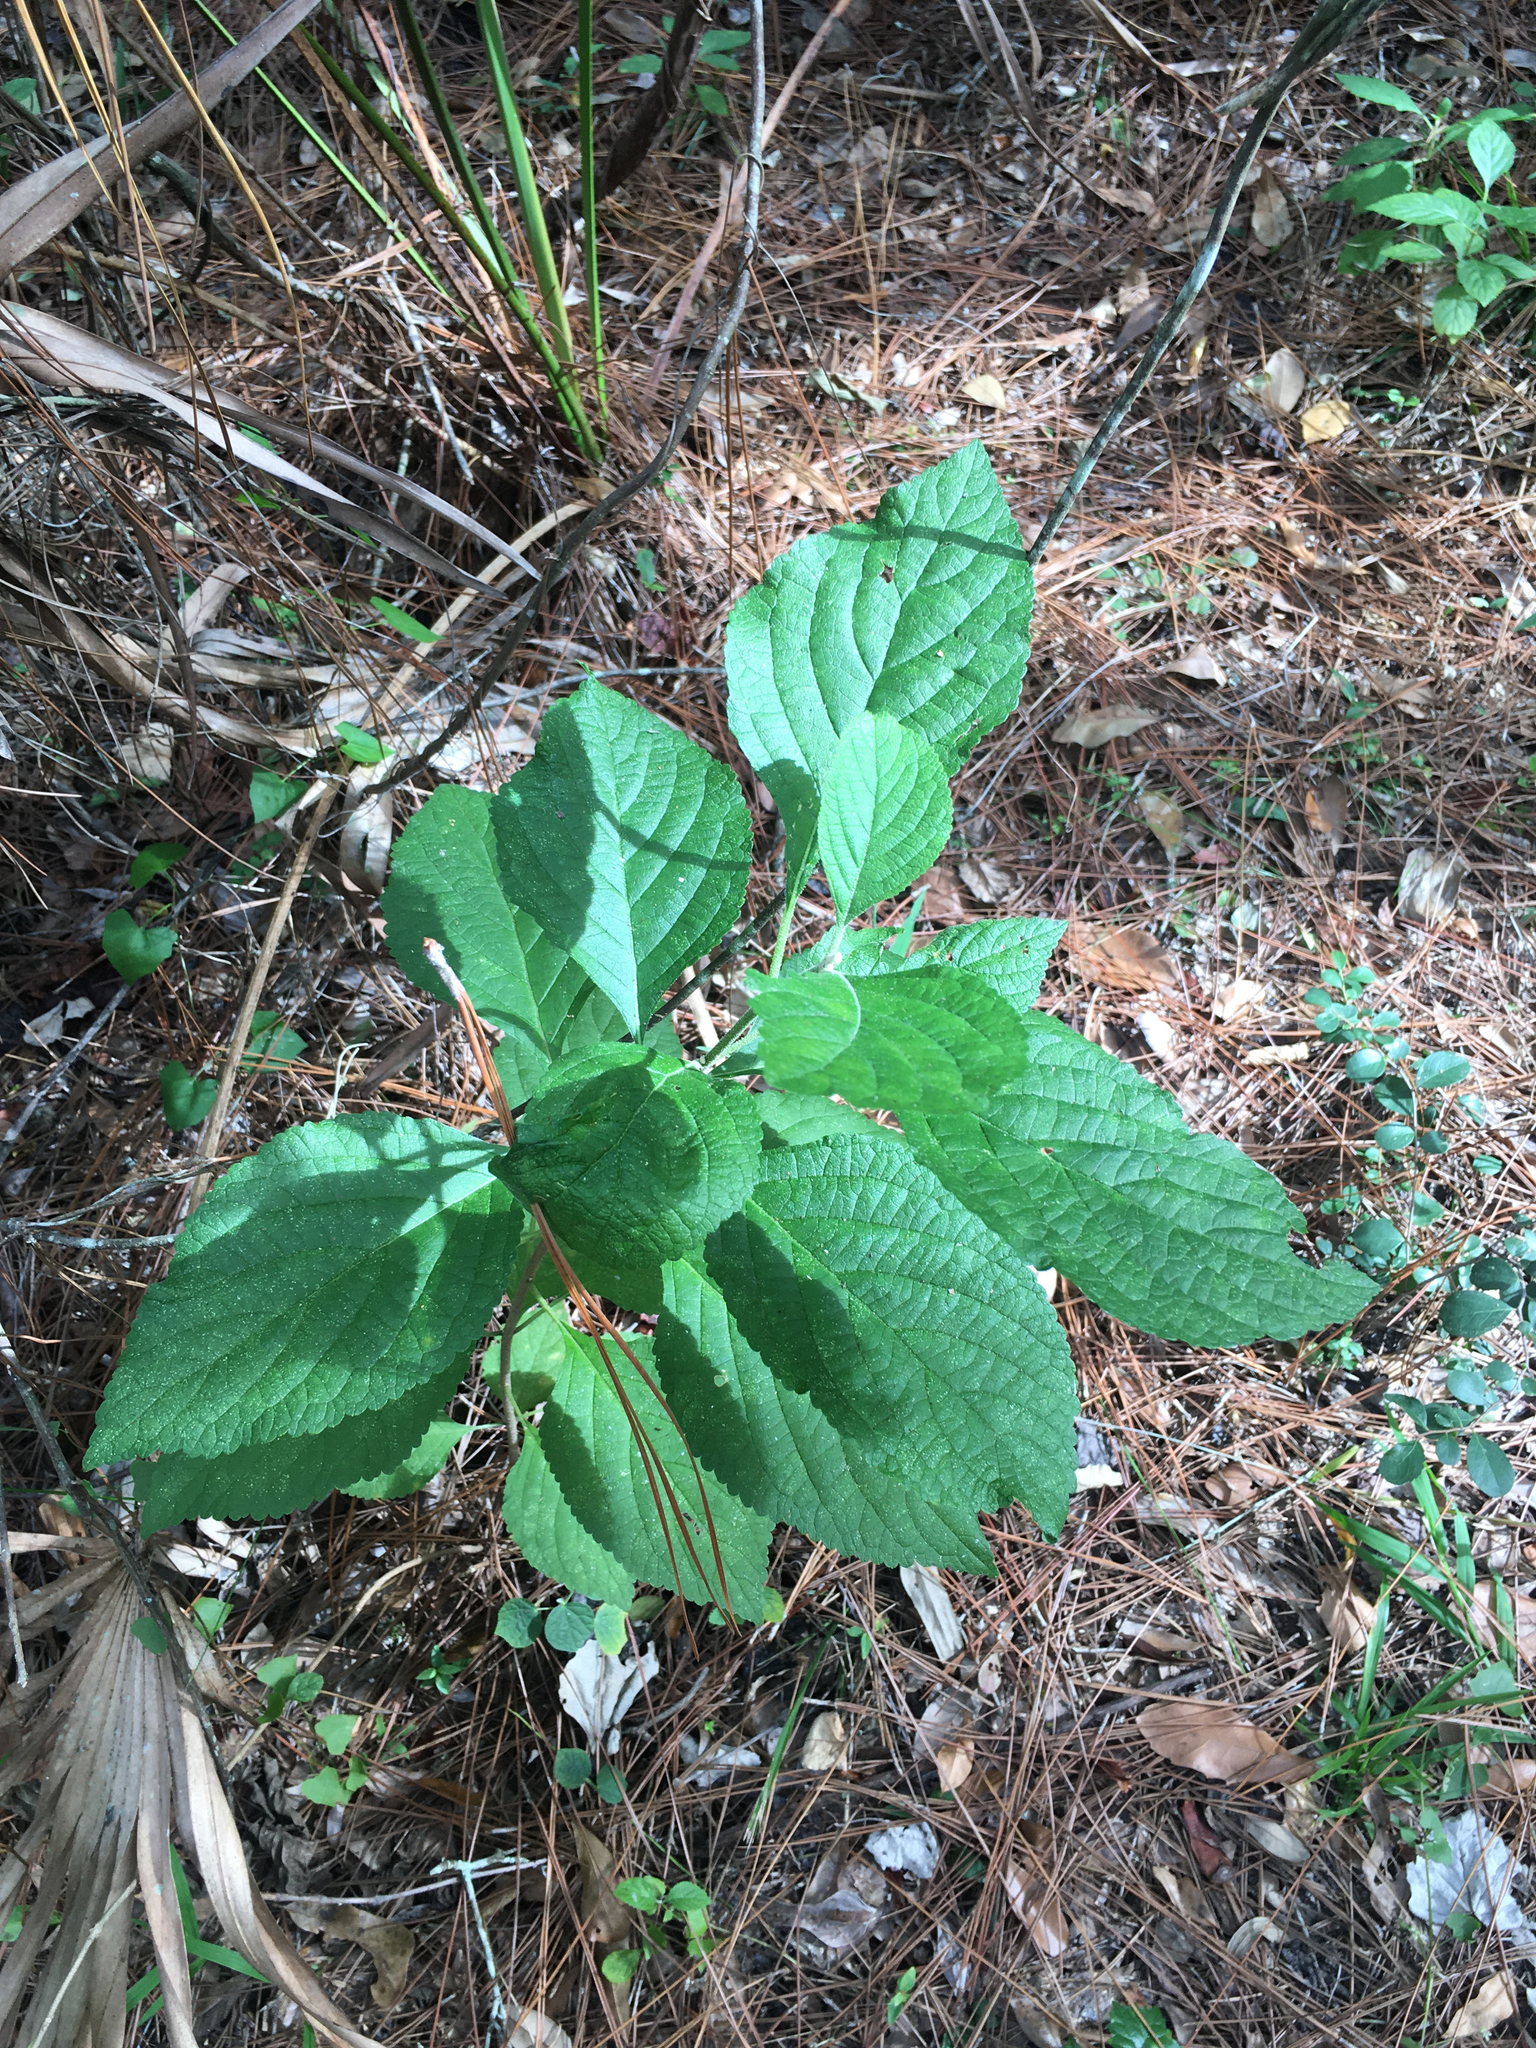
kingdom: Plantae
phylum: Tracheophyta
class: Magnoliopsida
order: Lamiales
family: Lamiaceae
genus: Callicarpa
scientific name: Callicarpa americana
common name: American beautyberry
